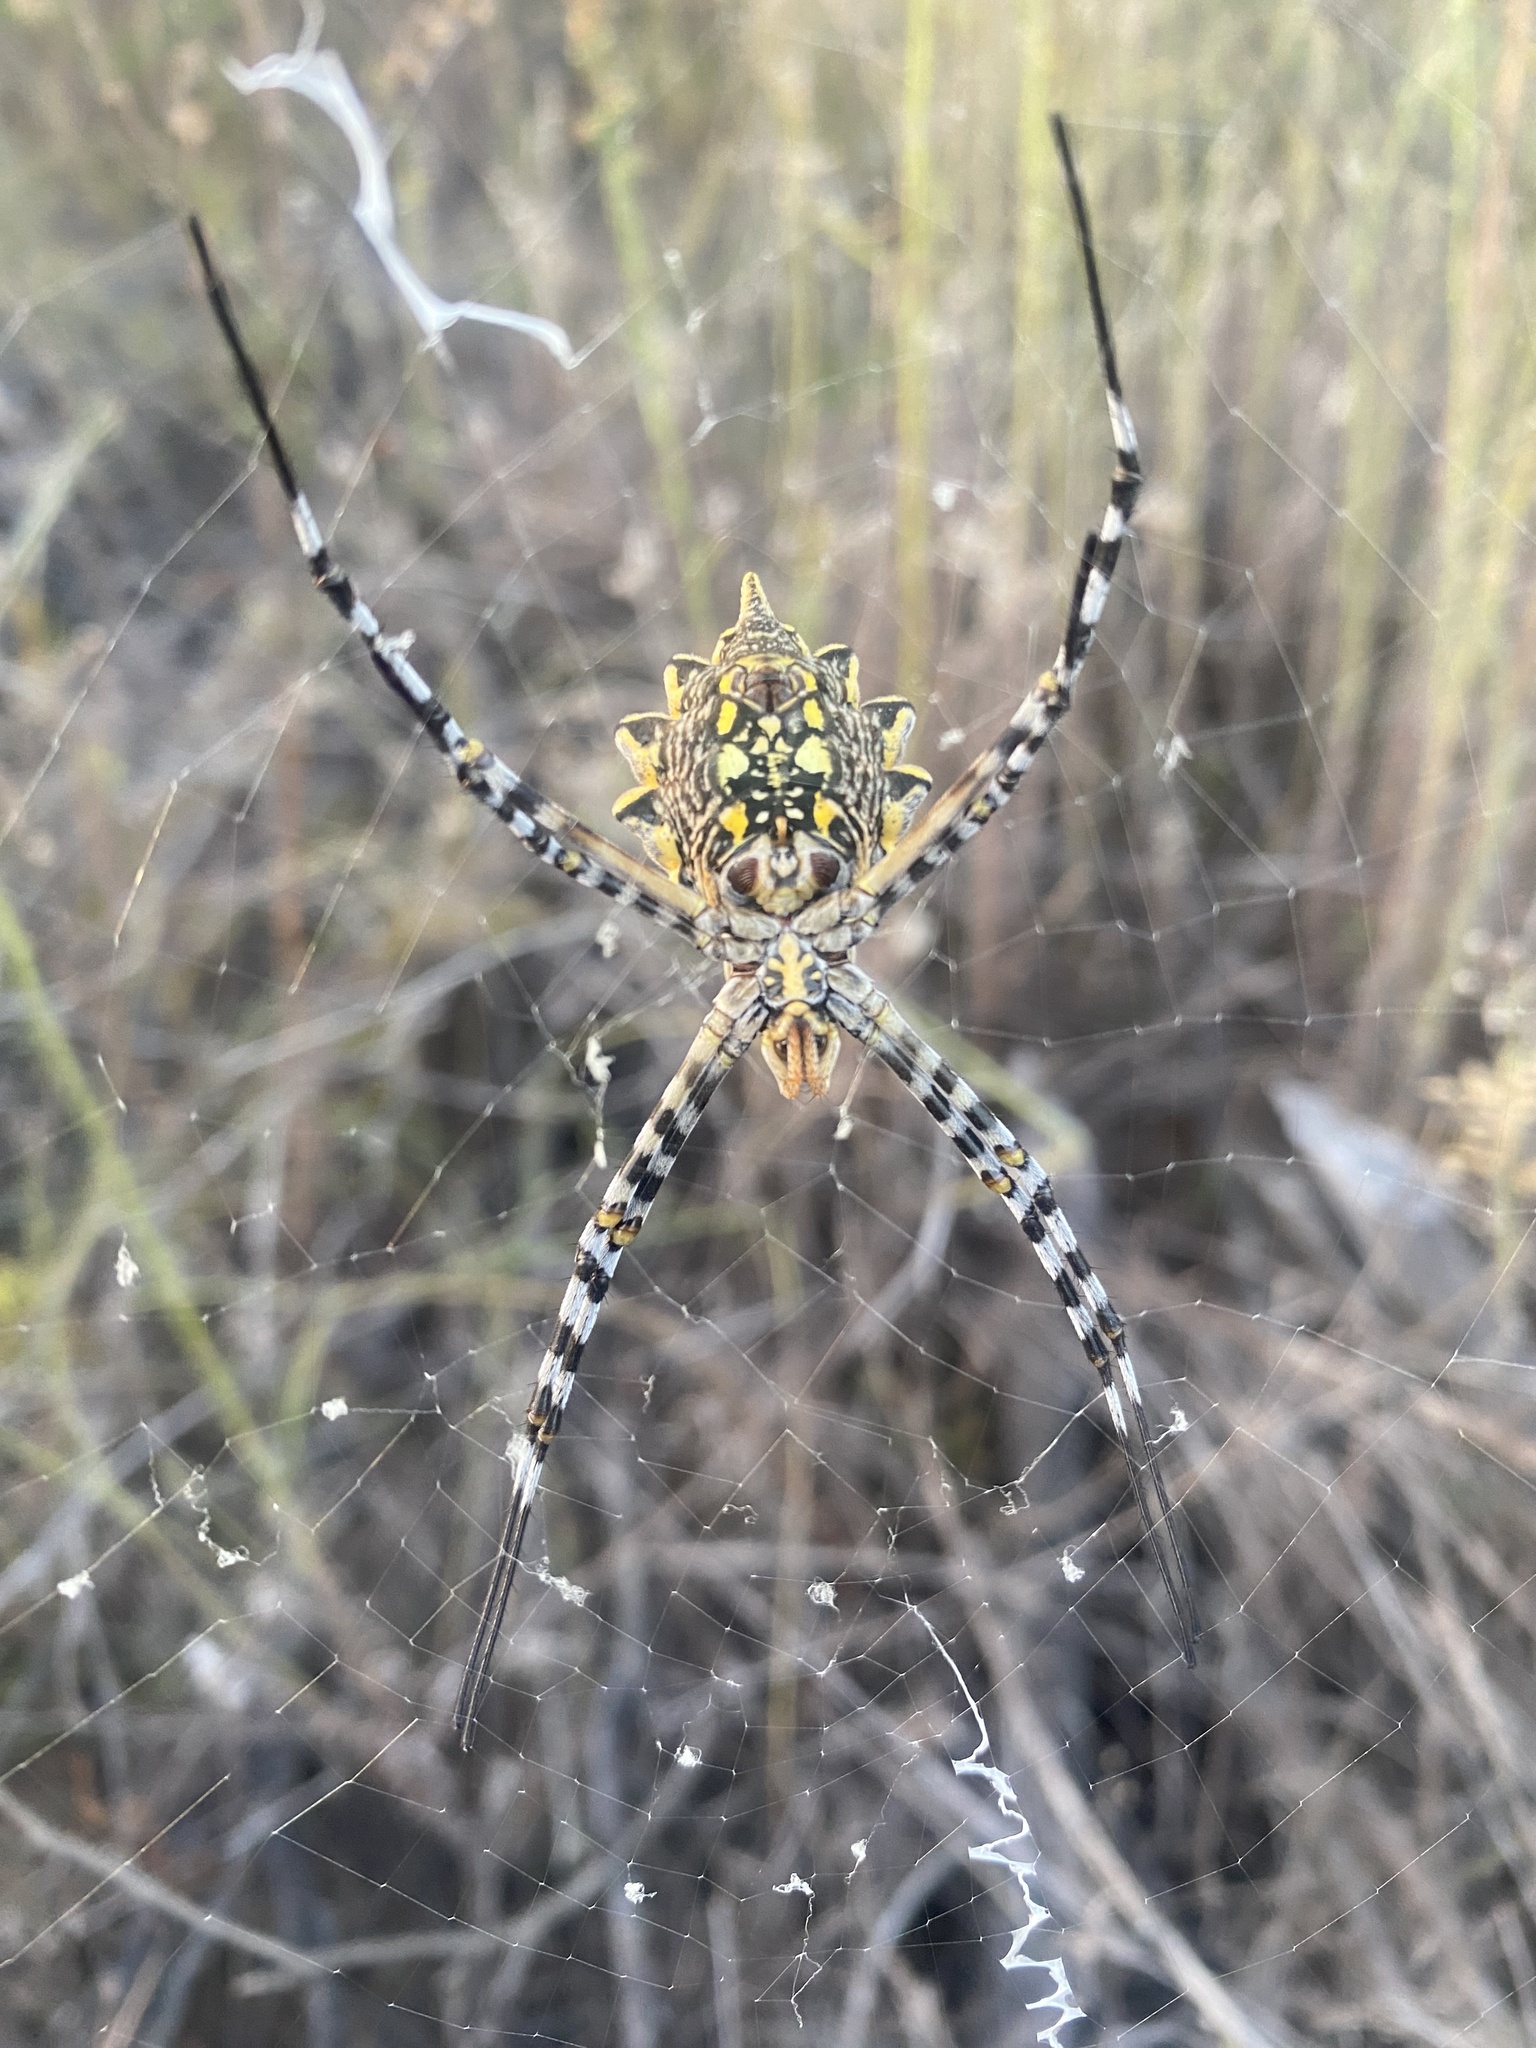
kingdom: Animalia
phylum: Arthropoda
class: Arachnida
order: Araneae
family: Araneidae
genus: Argiope
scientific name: Argiope australis
